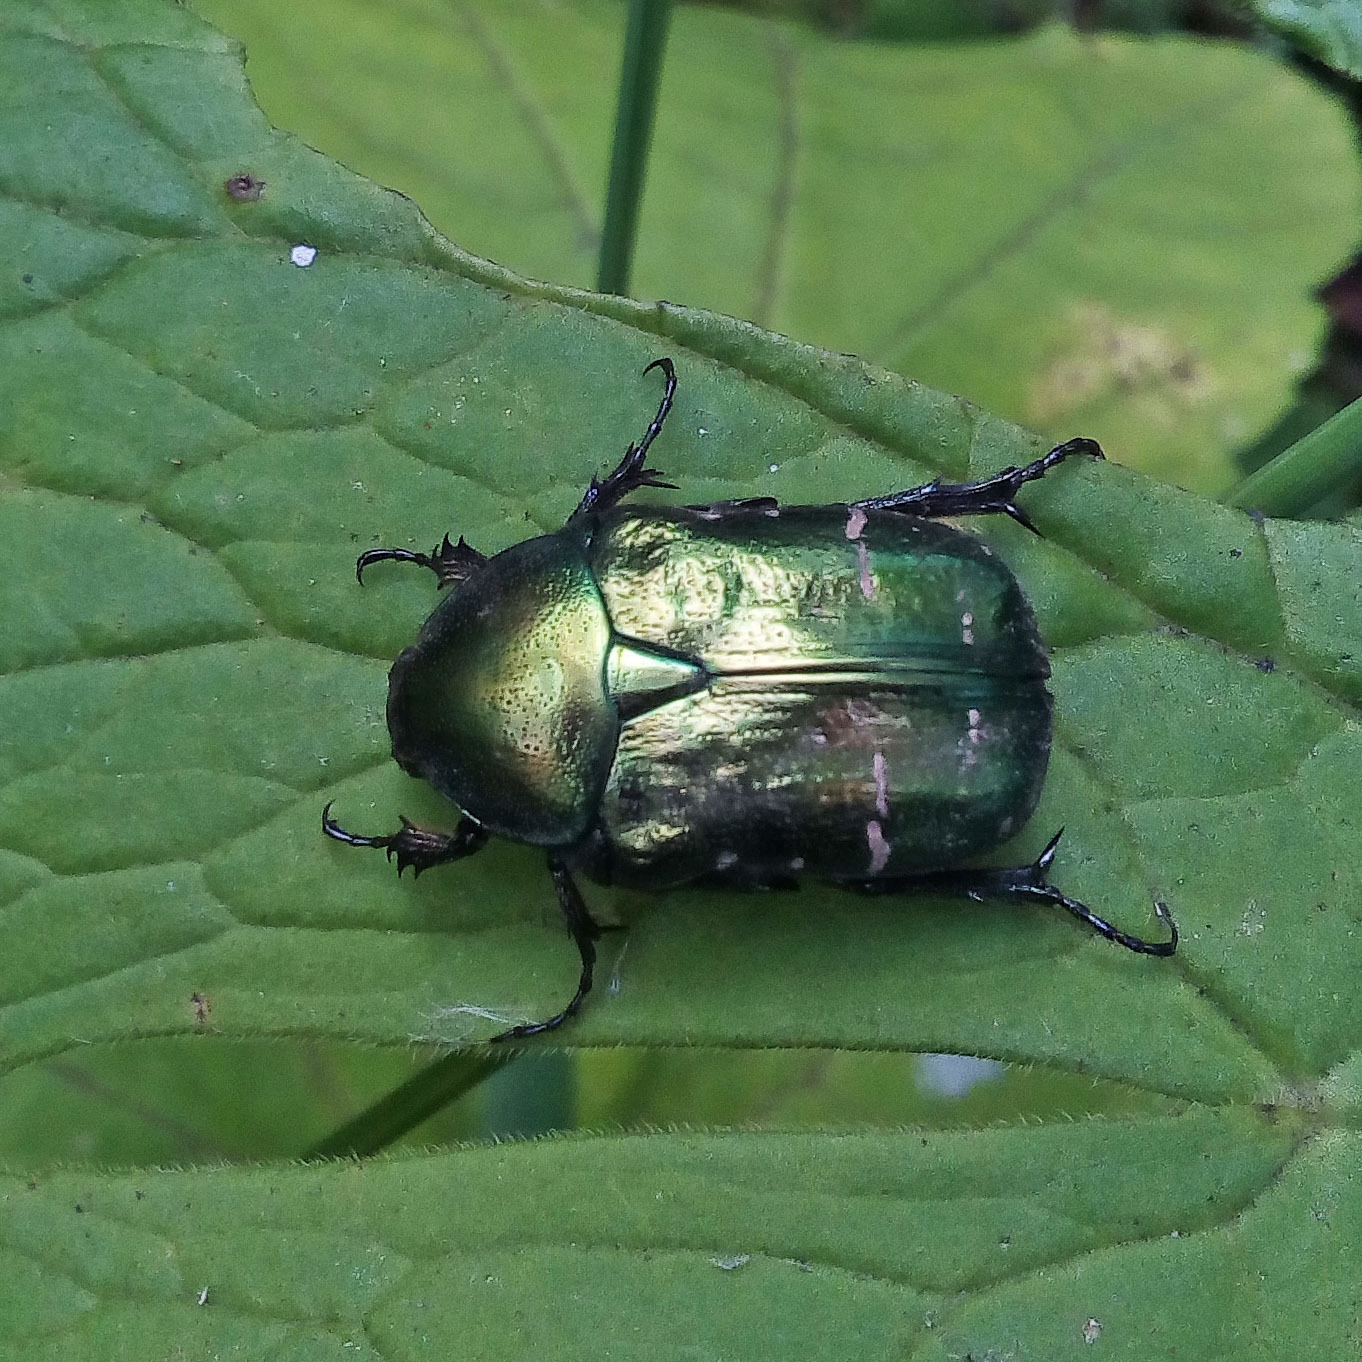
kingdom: Animalia
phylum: Arthropoda
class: Insecta
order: Coleoptera
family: Scarabaeidae
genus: Cetonia
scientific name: Cetonia aurata
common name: Rose chafer
